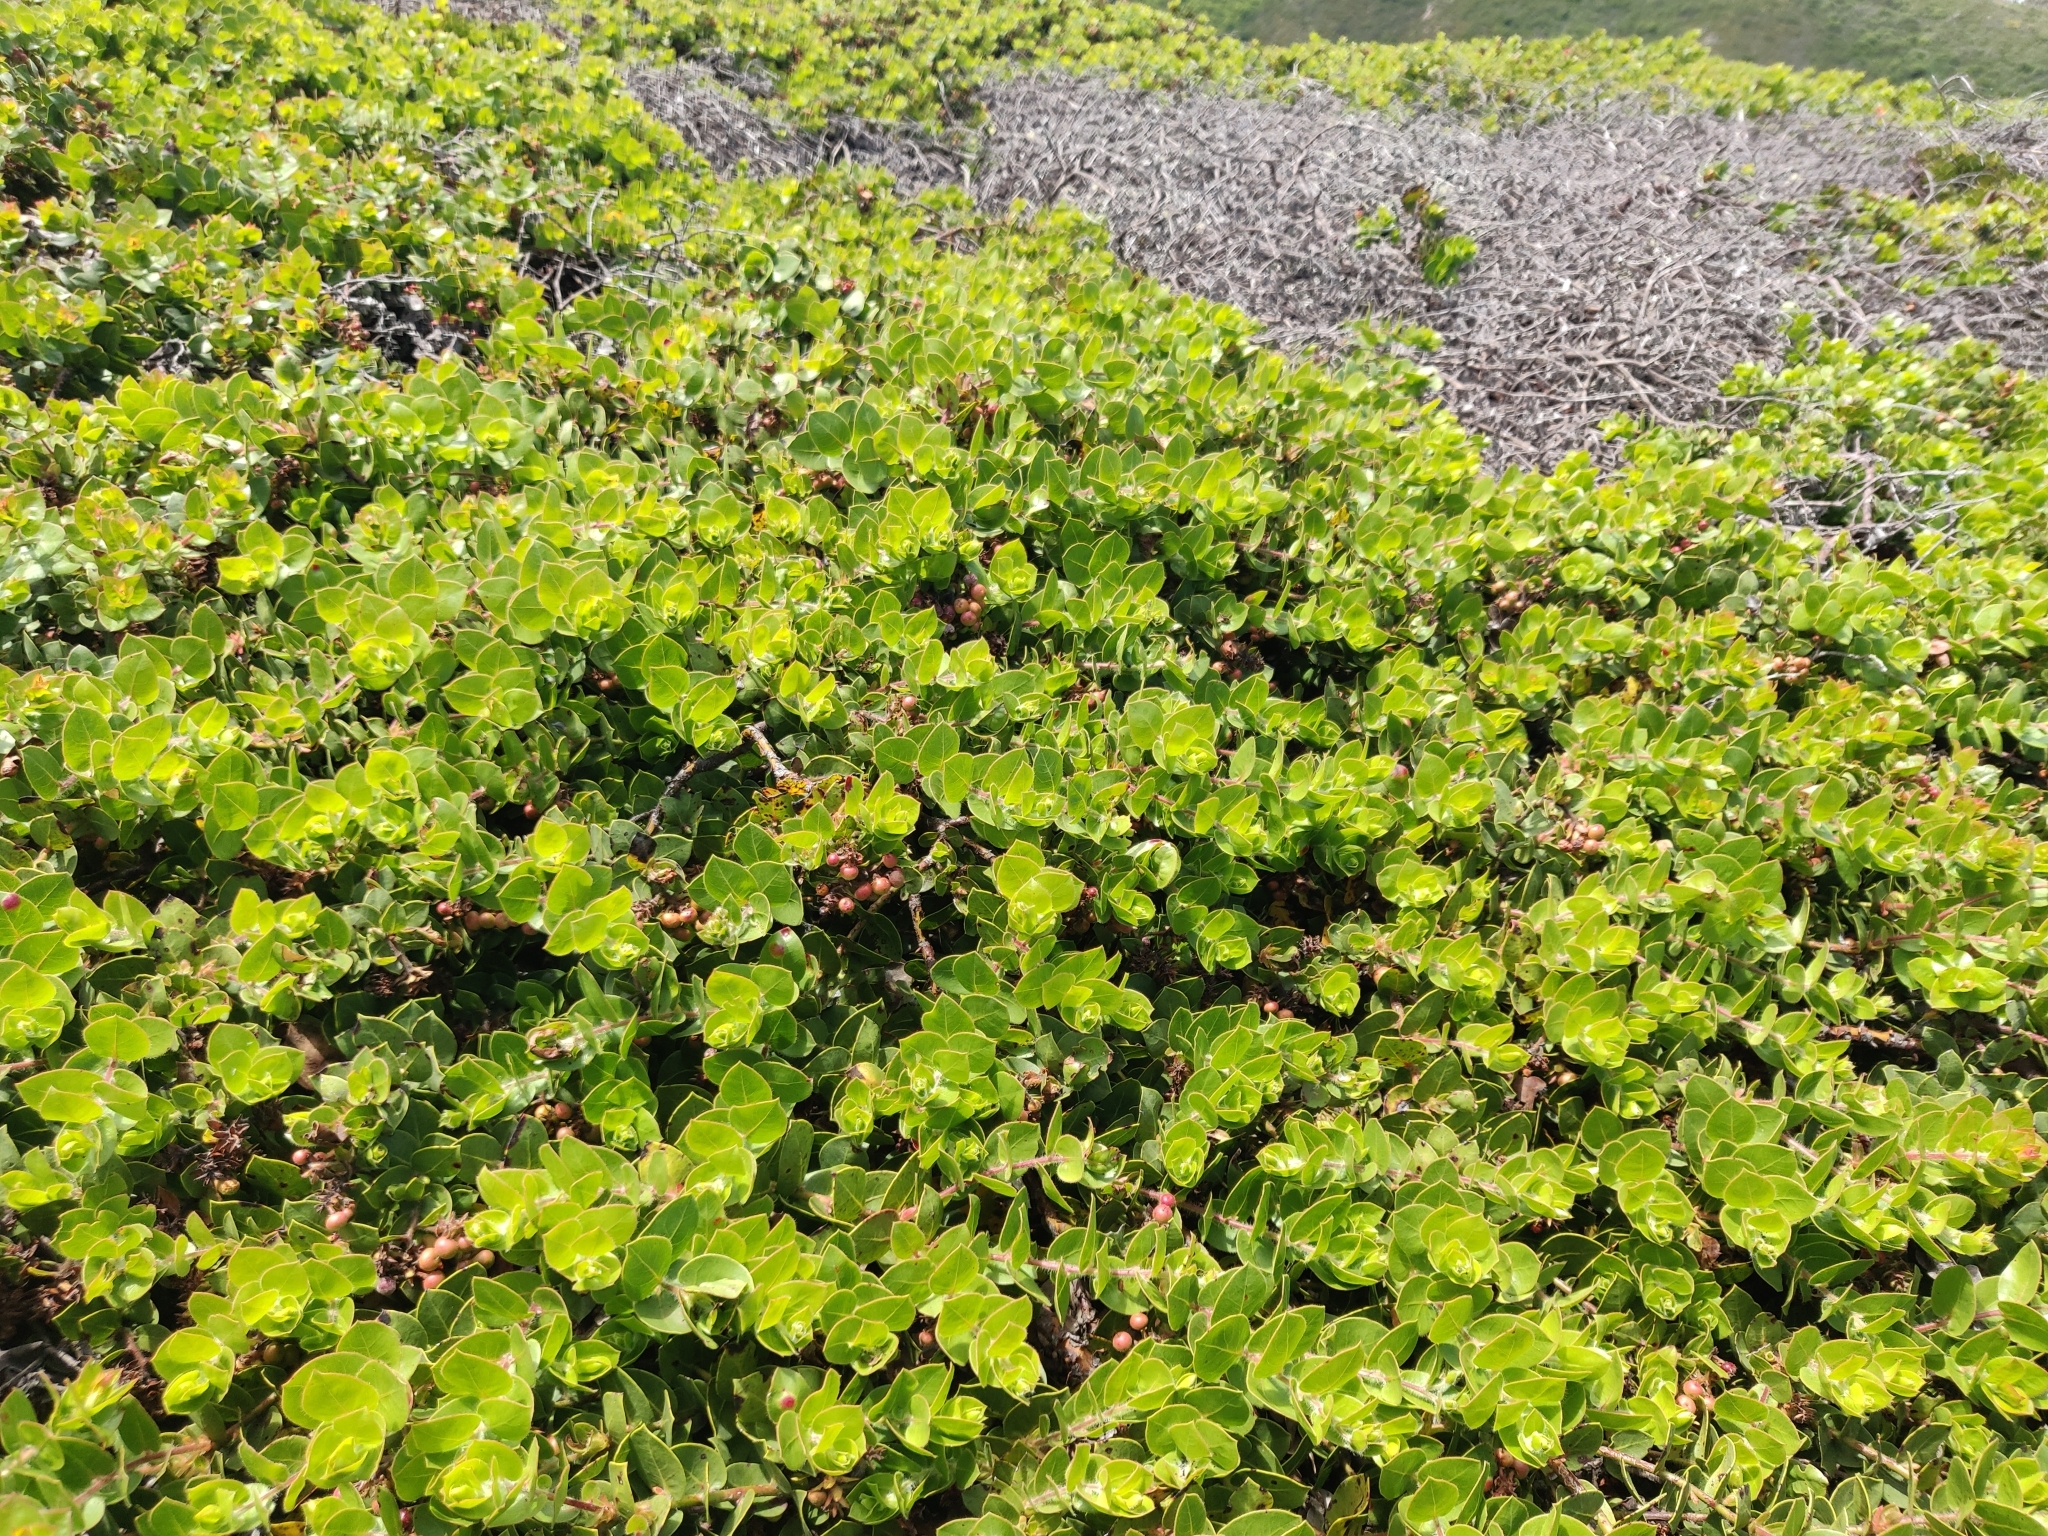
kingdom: Plantae
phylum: Tracheophyta
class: Magnoliopsida
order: Ericales
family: Ericaceae
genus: Arctostaphylos
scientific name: Arctostaphylos imbricata
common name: San bruno mountain manzanita
